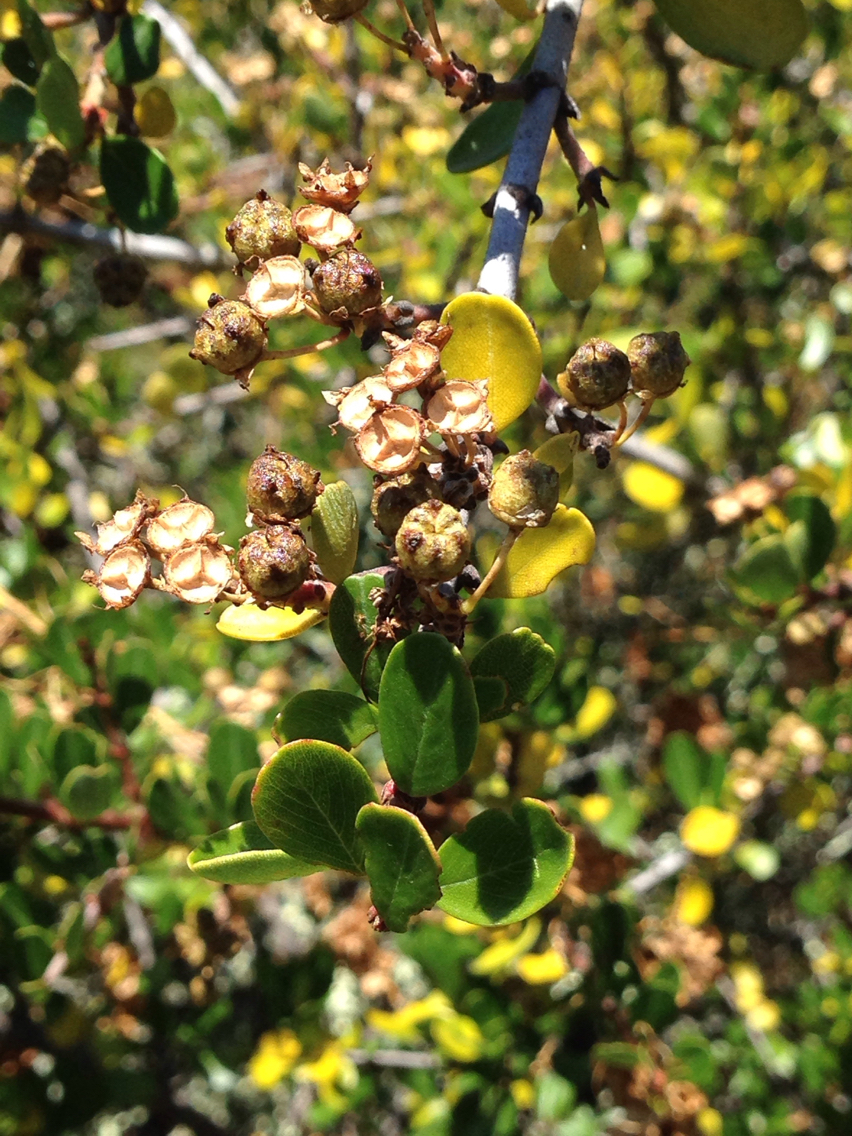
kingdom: Plantae
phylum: Tracheophyta
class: Magnoliopsida
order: Rosales
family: Rhamnaceae
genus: Ceanothus
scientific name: Ceanothus cuneatus
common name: Cuneate ceanothus
